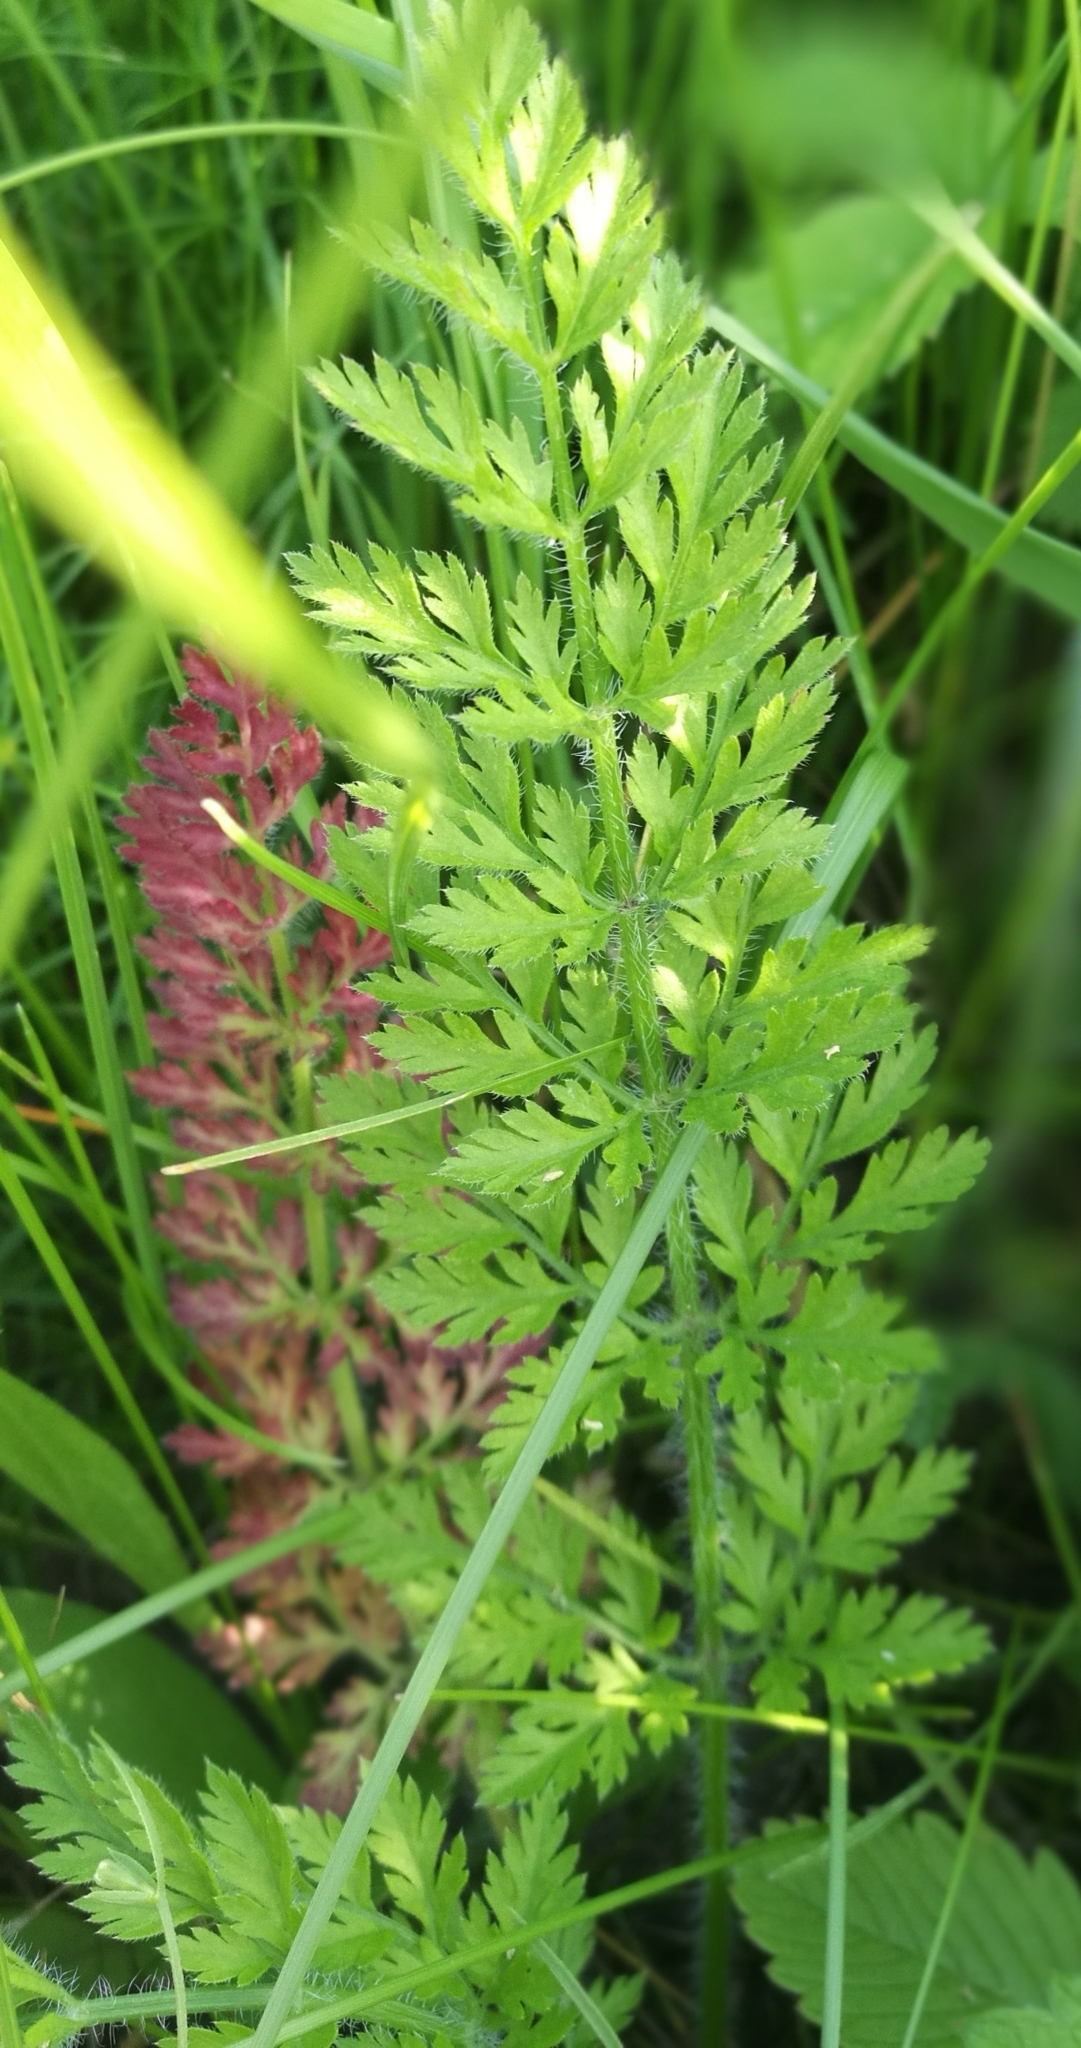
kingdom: Plantae
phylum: Tracheophyta
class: Magnoliopsida
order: Apiales
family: Apiaceae
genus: Daucus
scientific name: Daucus carota
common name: Wild carrot
